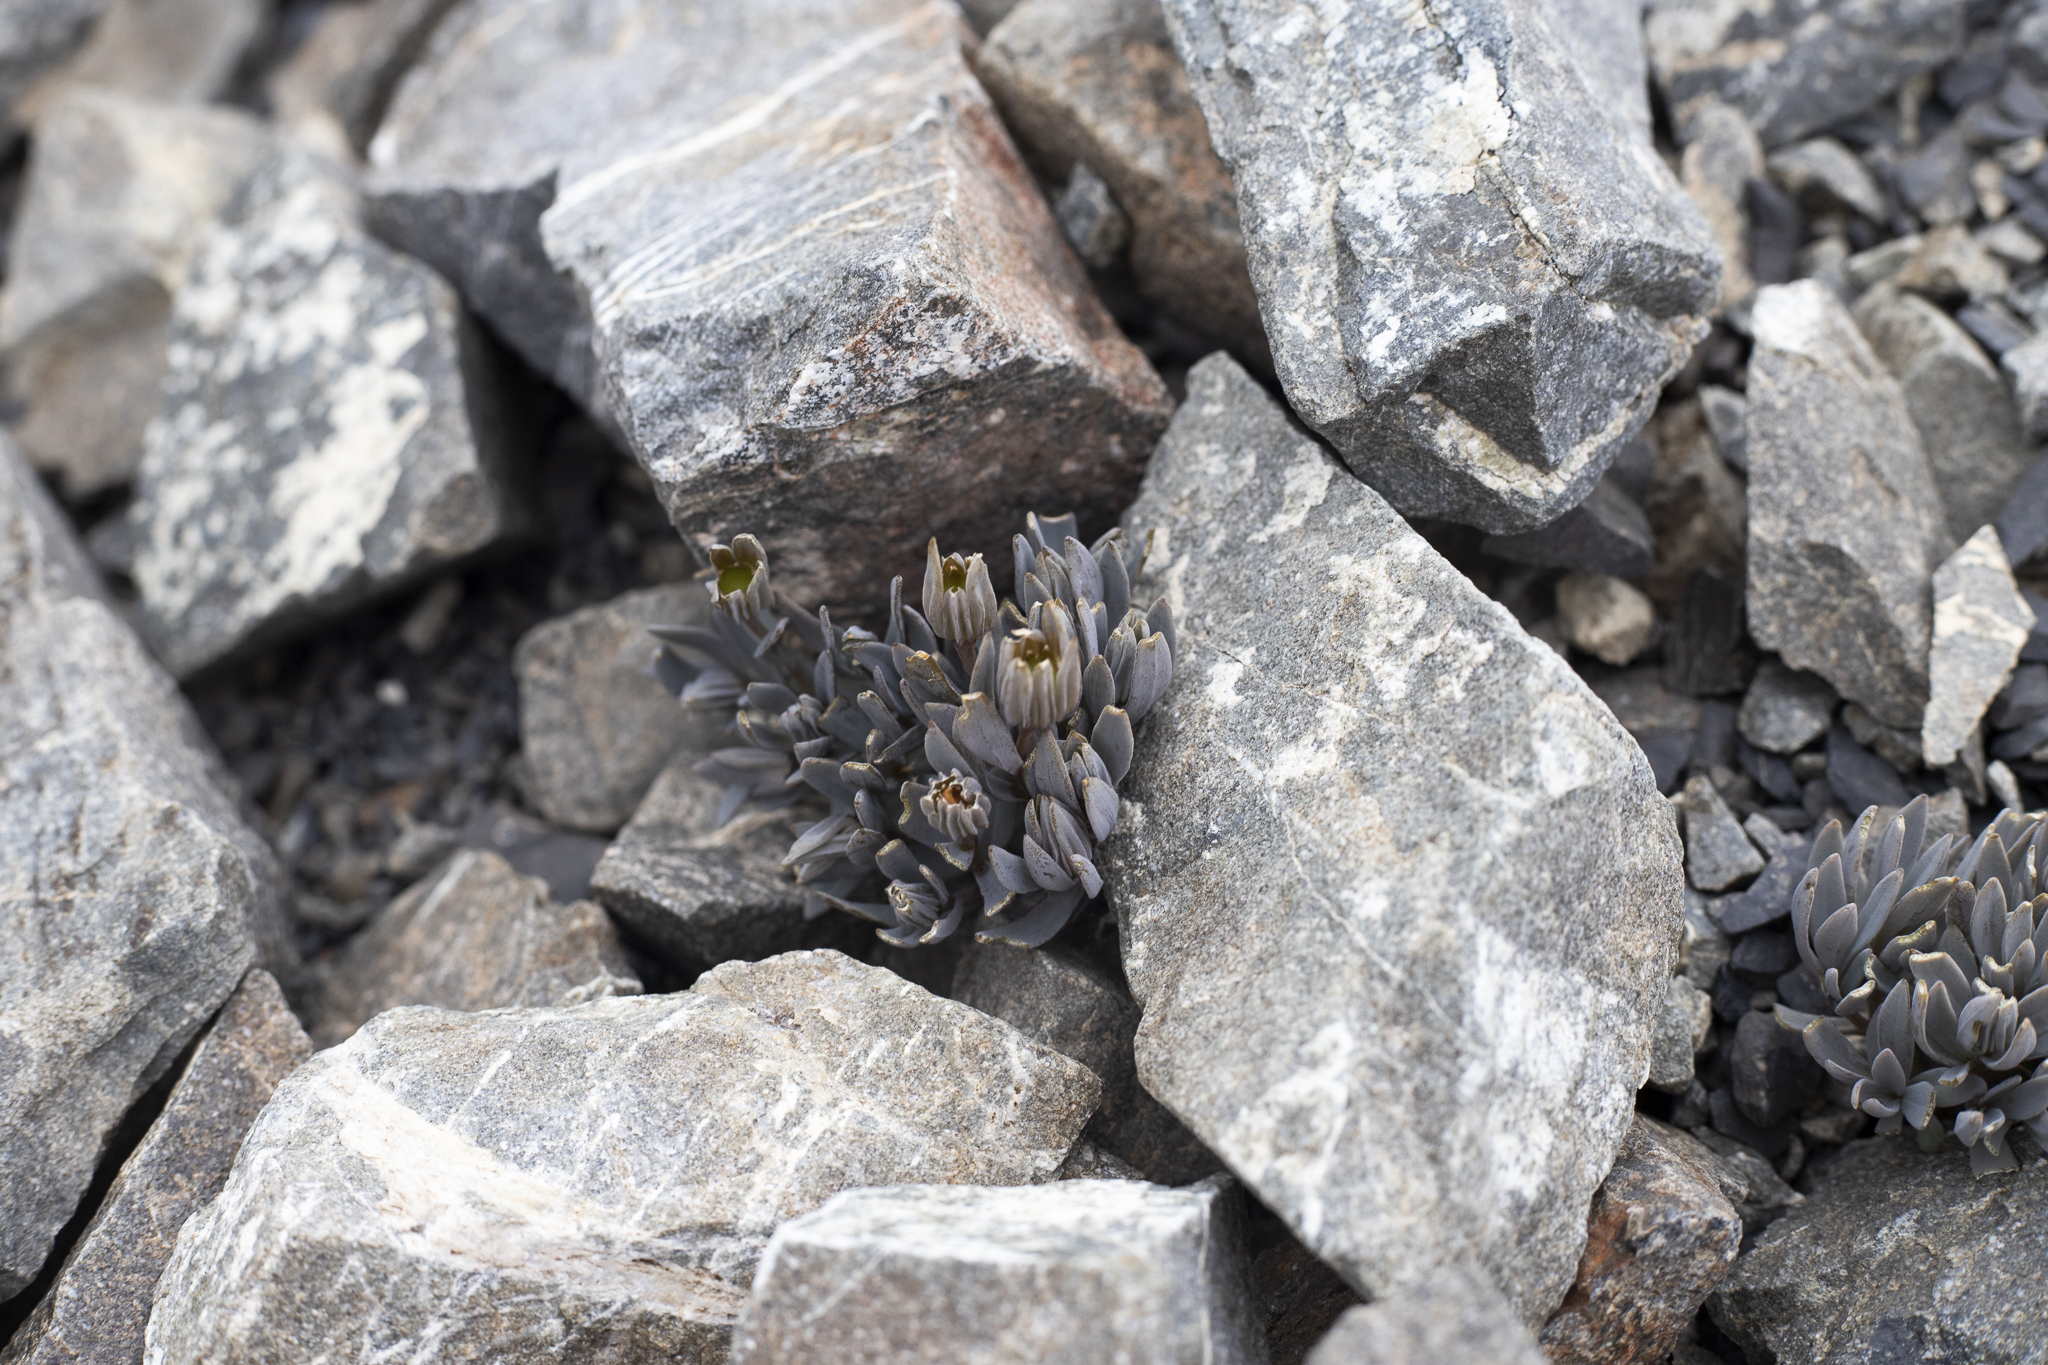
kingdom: Plantae
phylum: Tracheophyta
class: Magnoliopsida
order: Caryophyllales
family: Caryophyllaceae
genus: Stellaria
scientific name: Stellaria roughii
